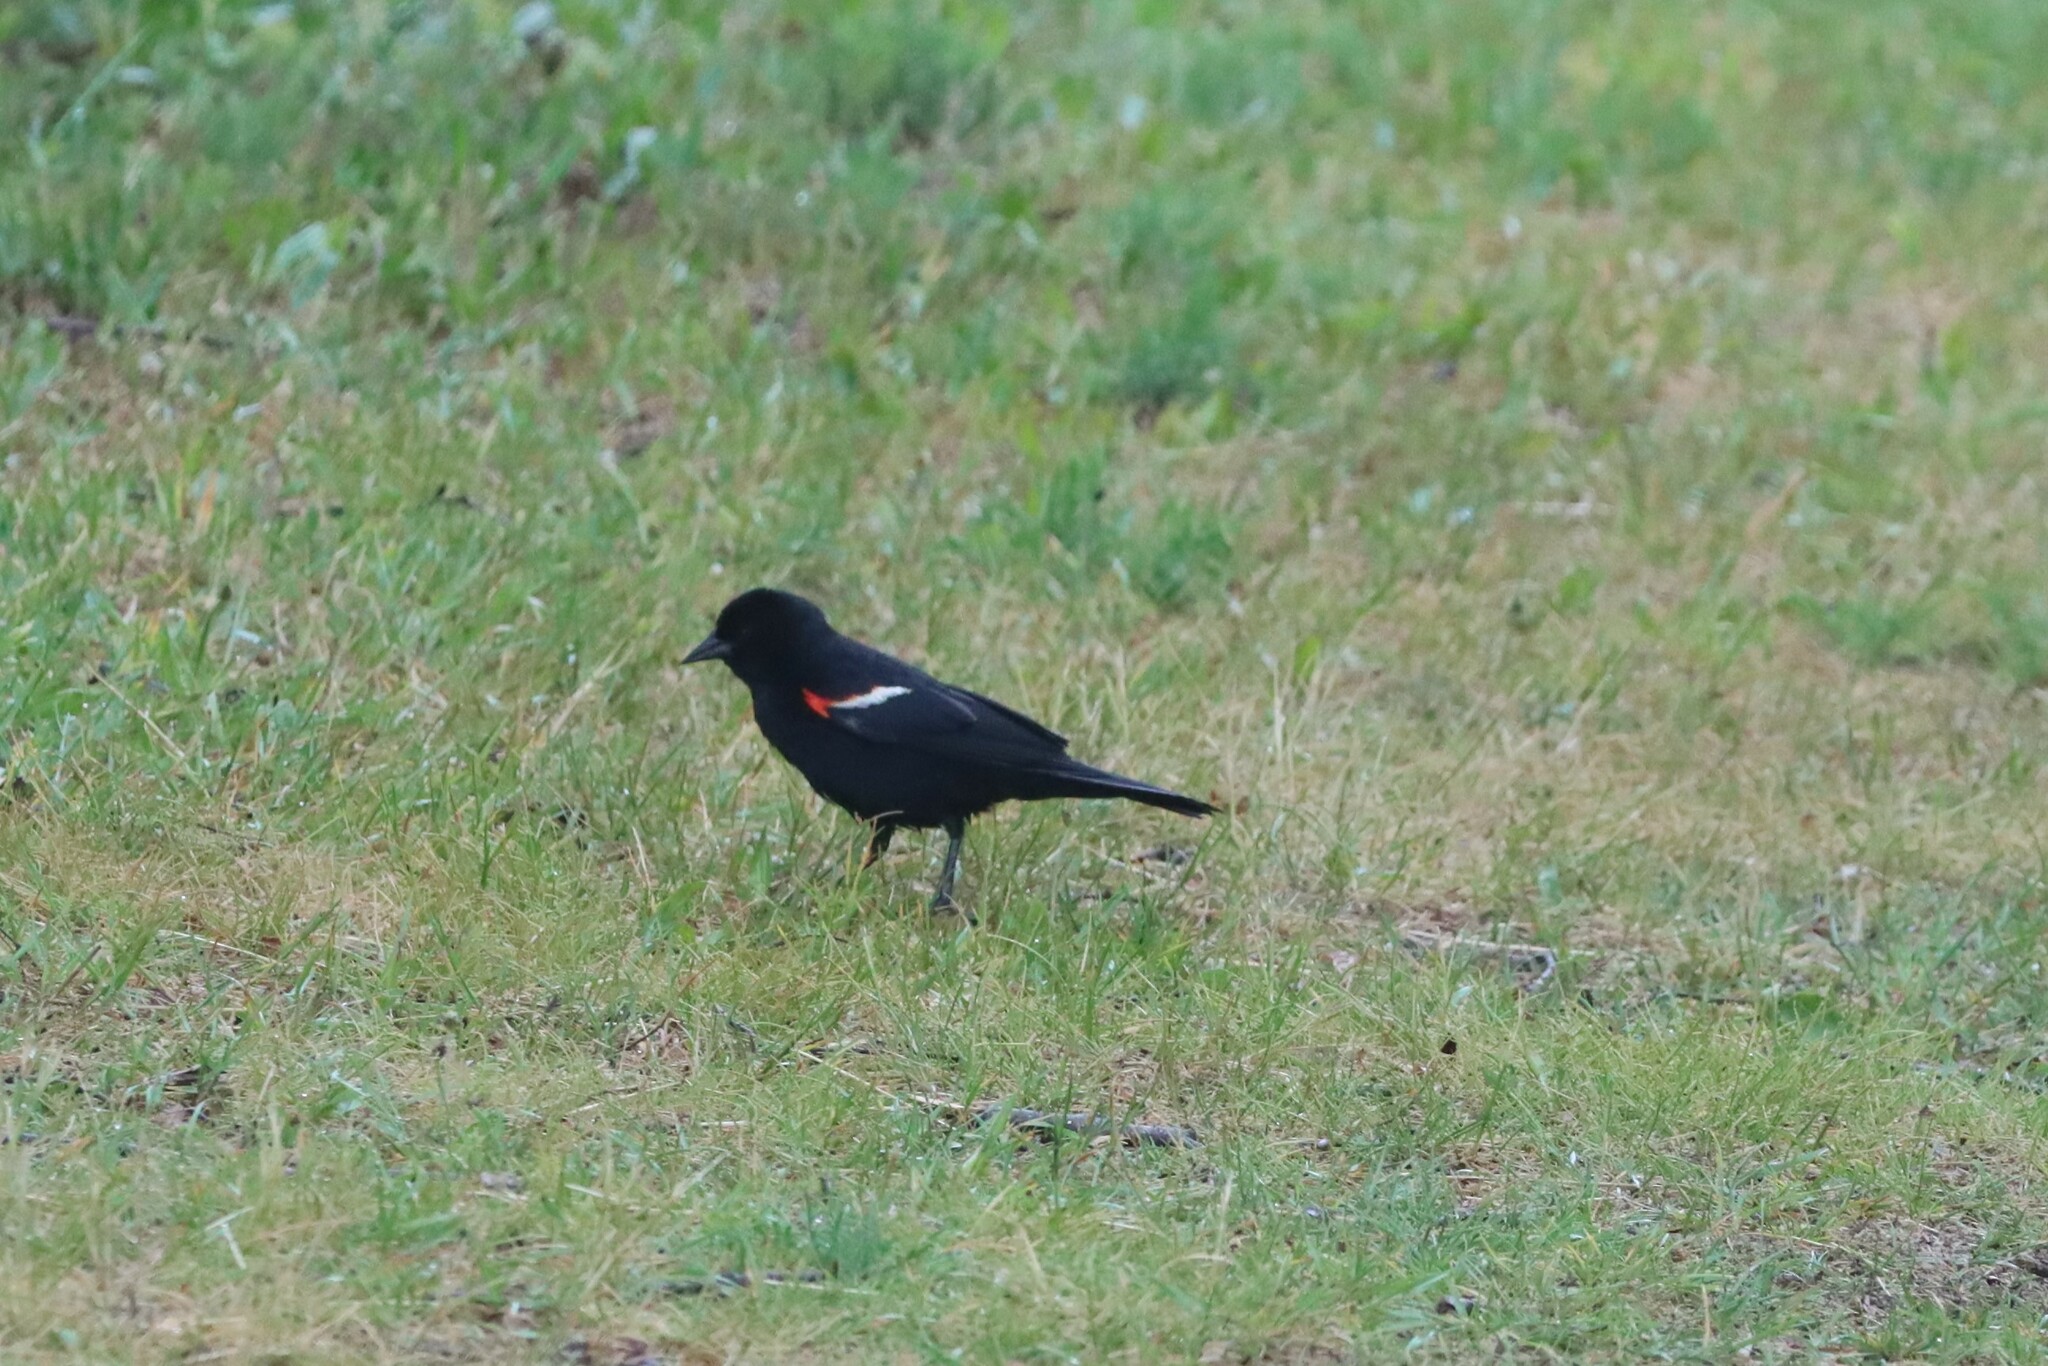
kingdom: Animalia
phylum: Chordata
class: Aves
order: Passeriformes
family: Icteridae
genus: Agelaius
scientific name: Agelaius phoeniceus
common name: Red-winged blackbird
